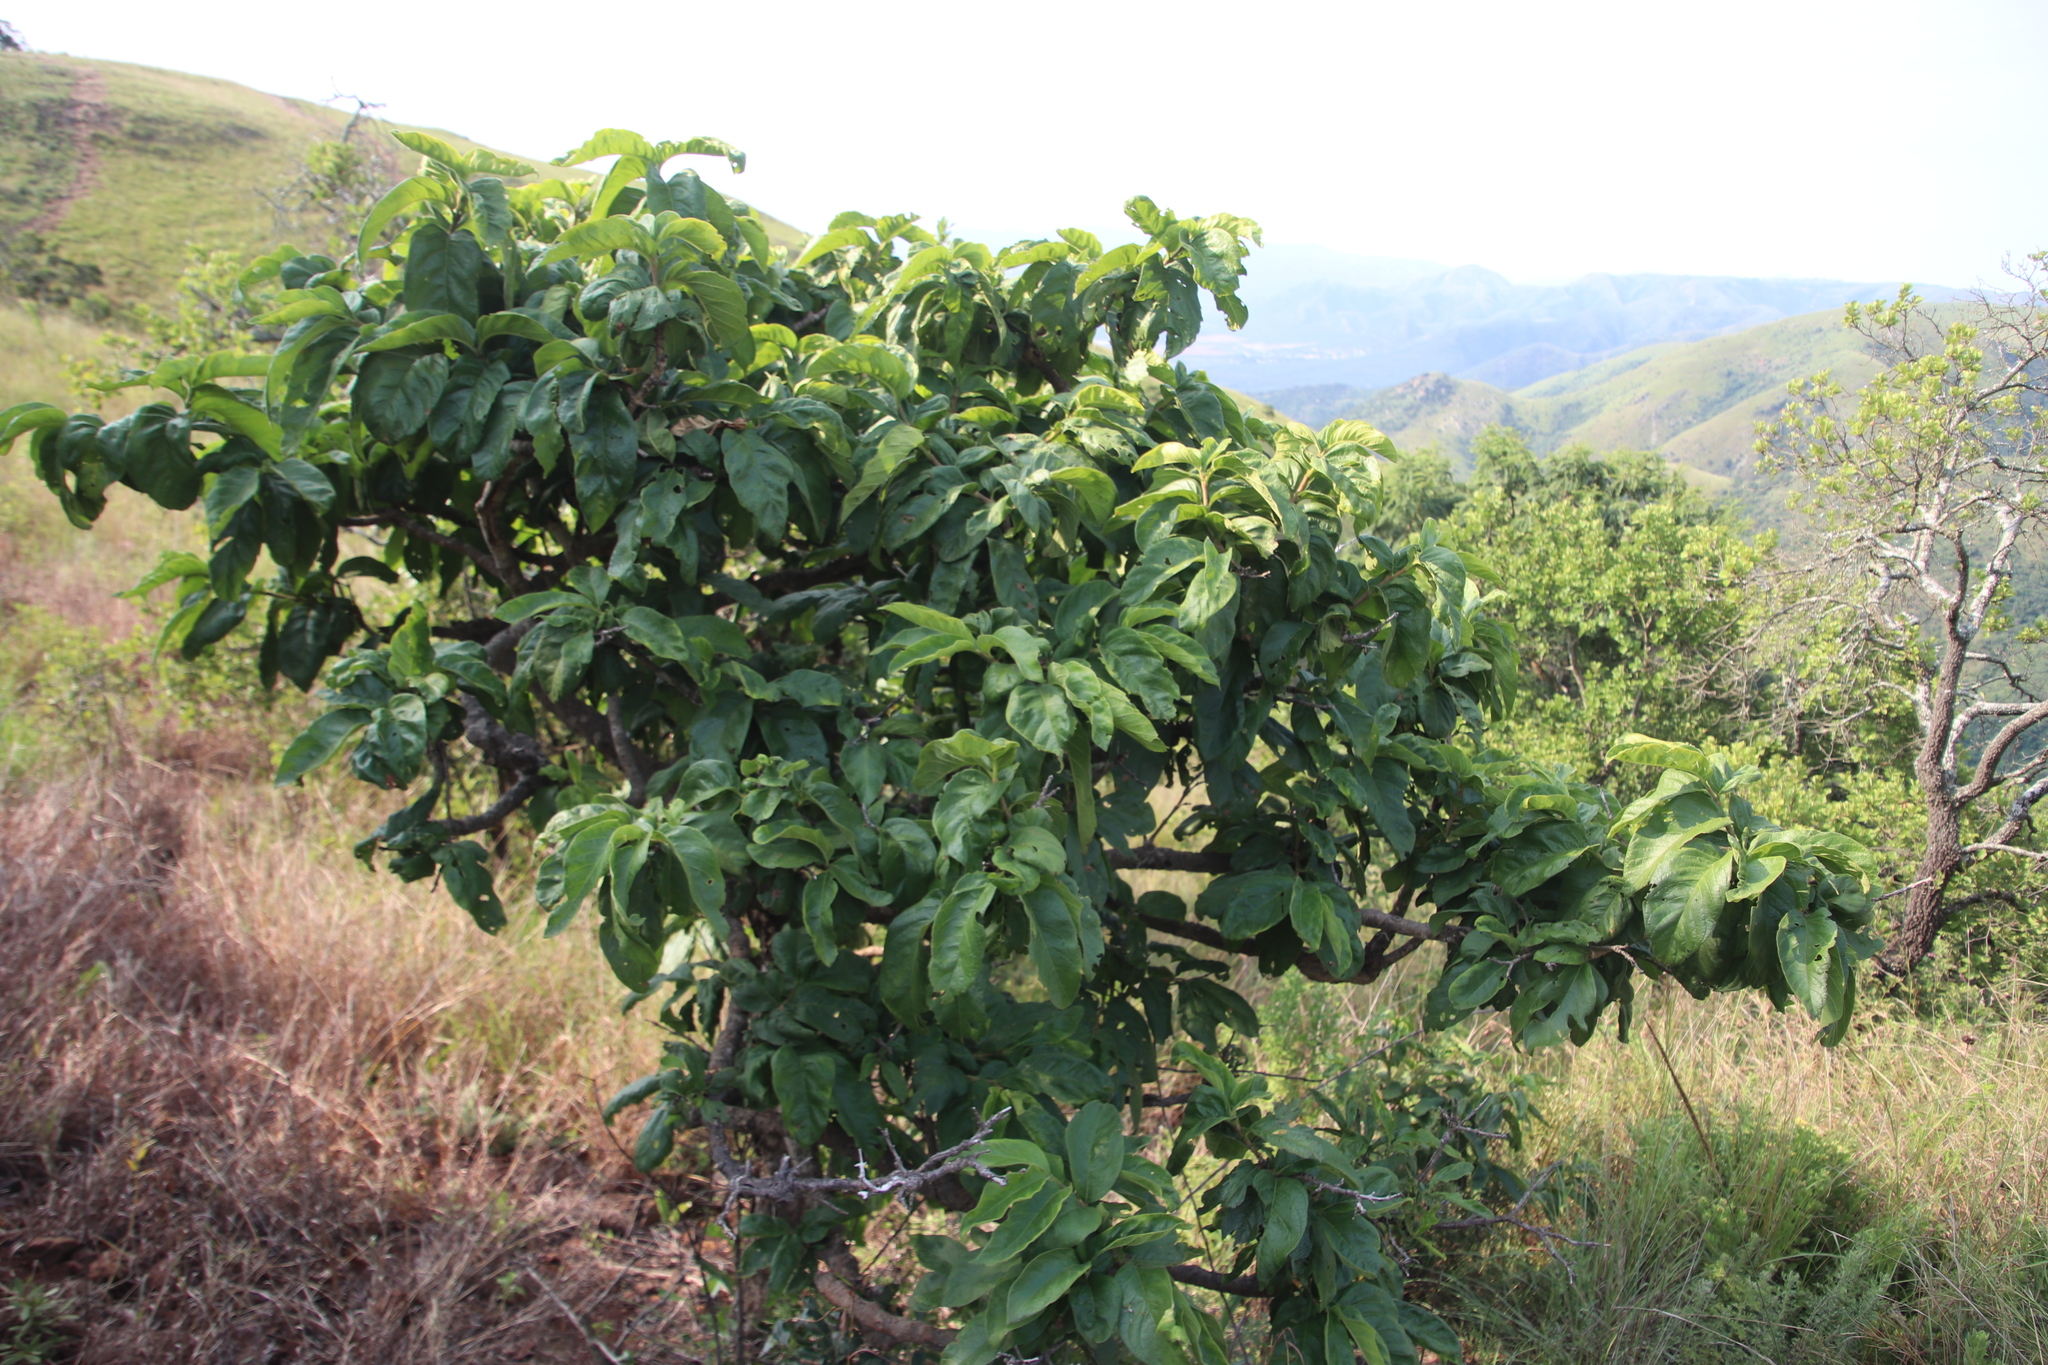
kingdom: Plantae
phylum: Tracheophyta
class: Magnoliopsida
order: Gentianales
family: Rubiaceae
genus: Vangueria
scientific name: Vangueria infausta
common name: Medlar
